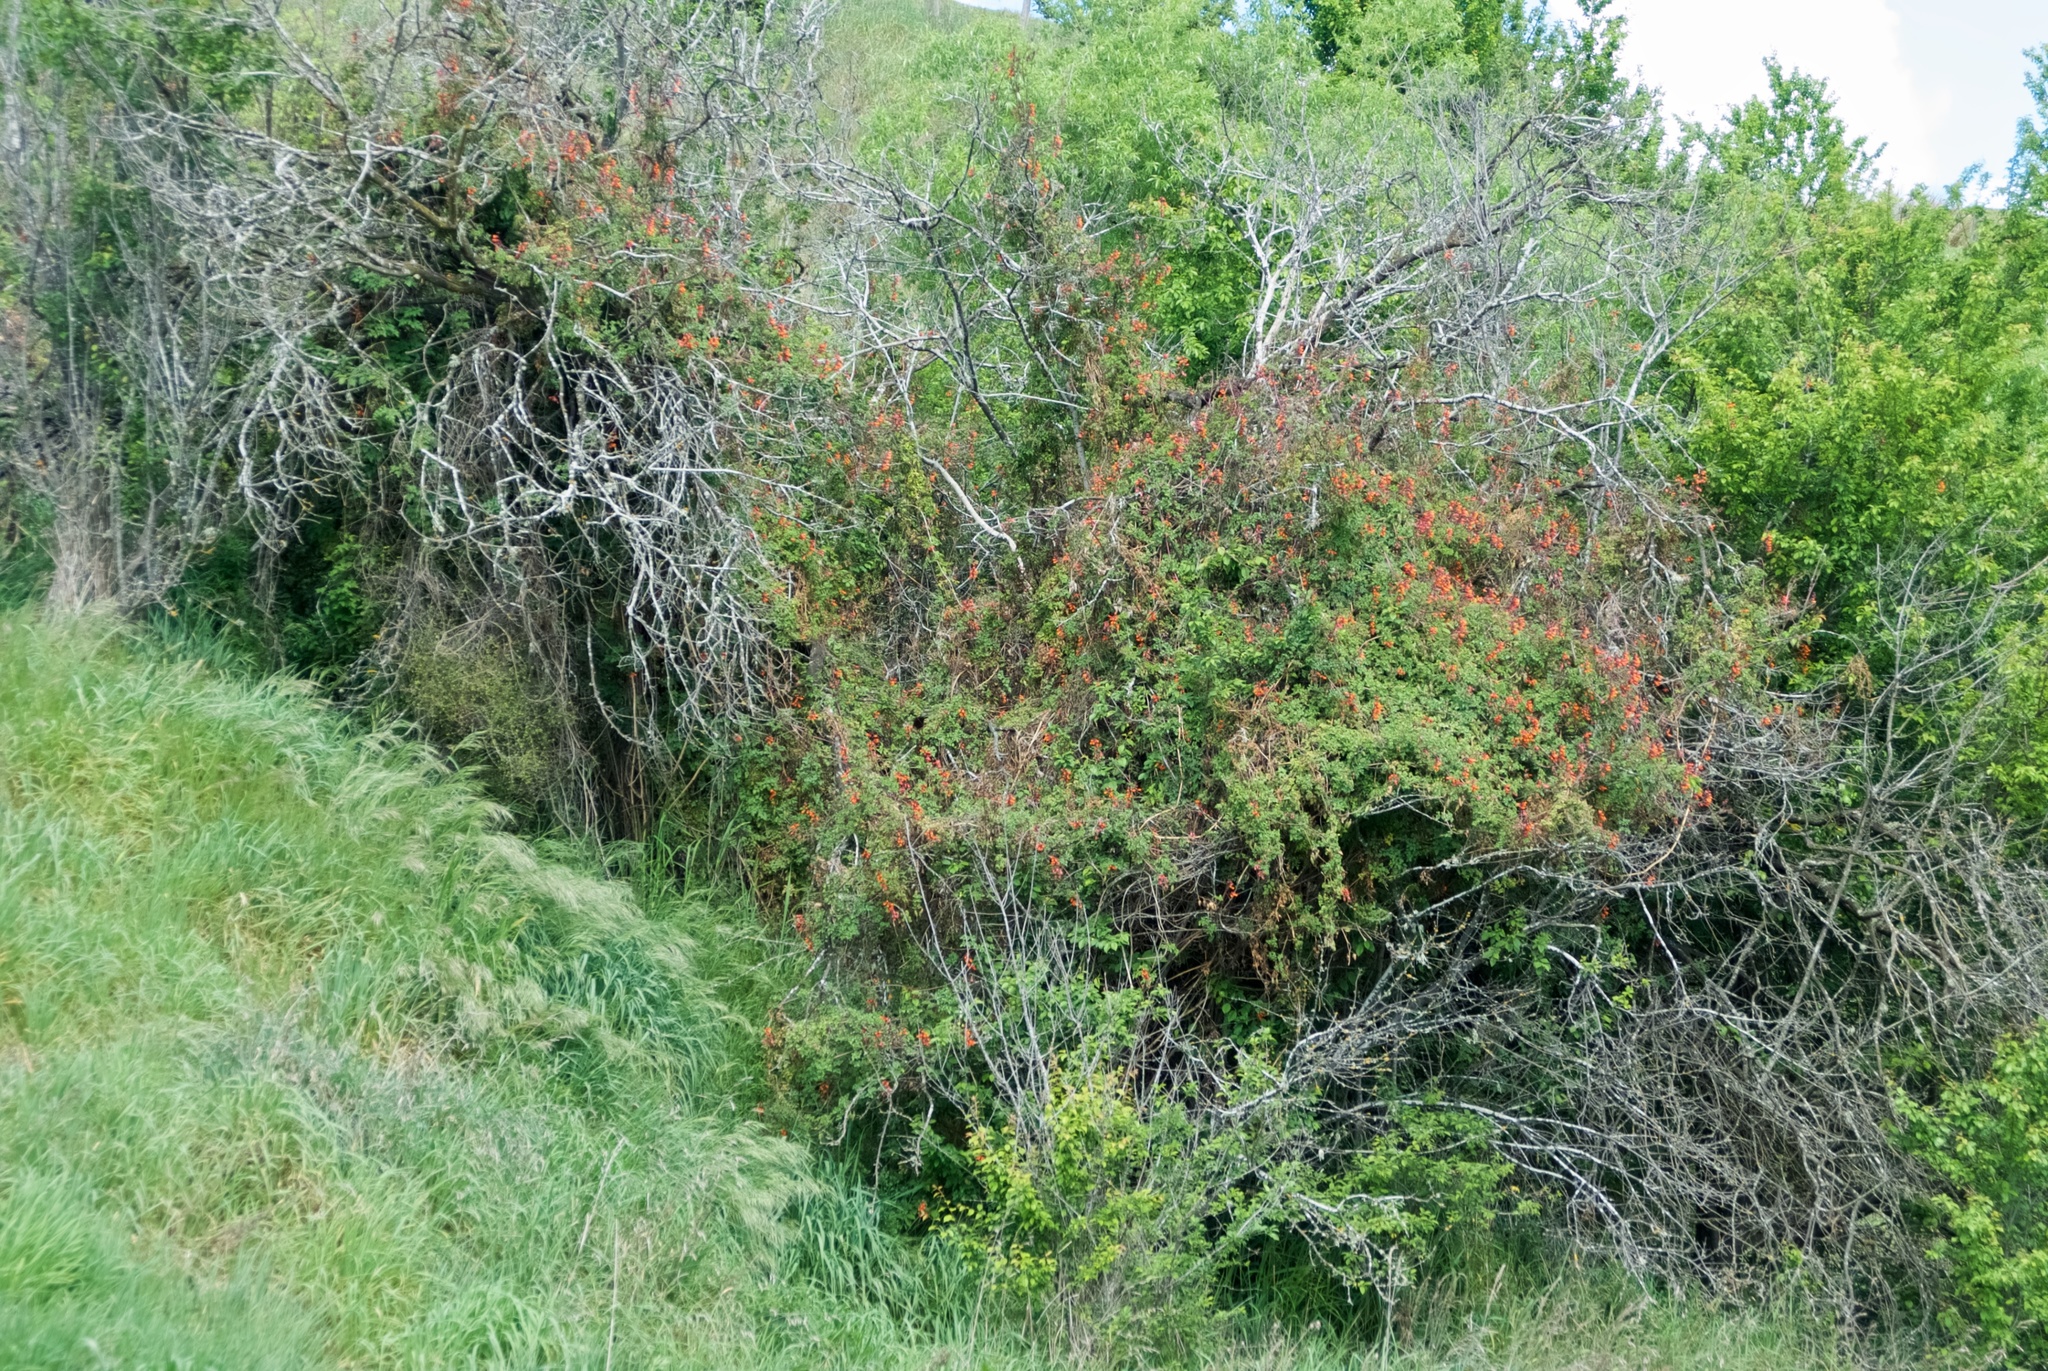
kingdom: Plantae
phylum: Tracheophyta
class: Magnoliopsida
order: Lamiales
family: Bignoniaceae
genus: Eccremocarpus
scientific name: Eccremocarpus scaber
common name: Chilean glory-flower
